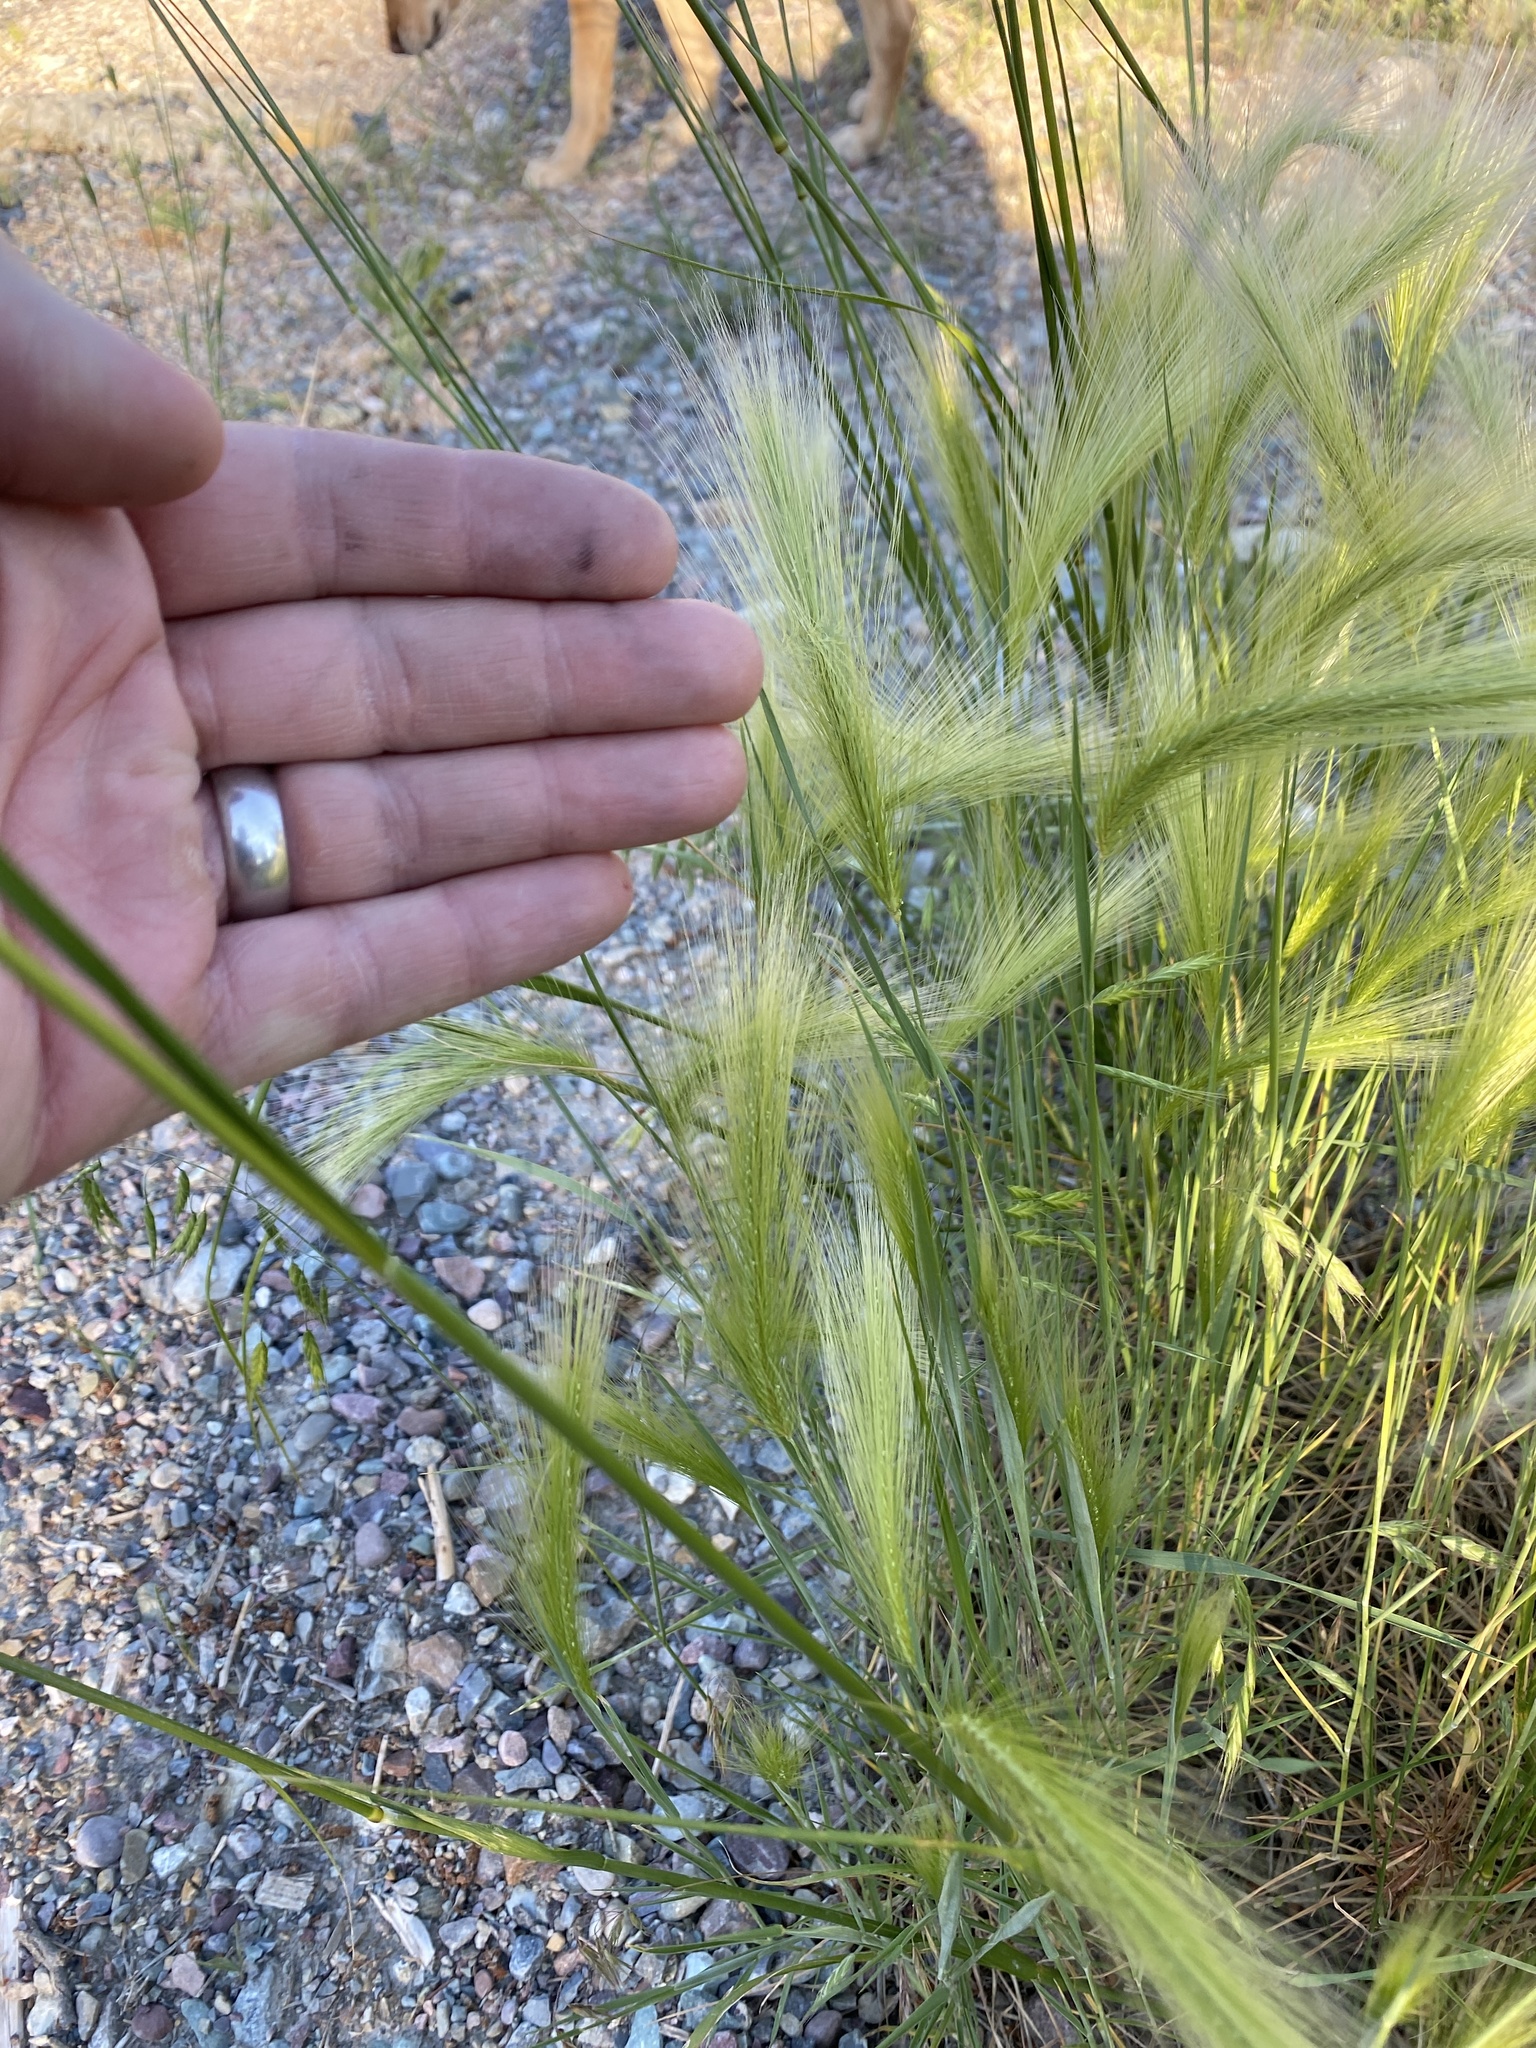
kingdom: Plantae
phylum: Tracheophyta
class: Liliopsida
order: Poales
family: Poaceae
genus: Hordeum
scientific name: Hordeum jubatum
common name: Foxtail barley
